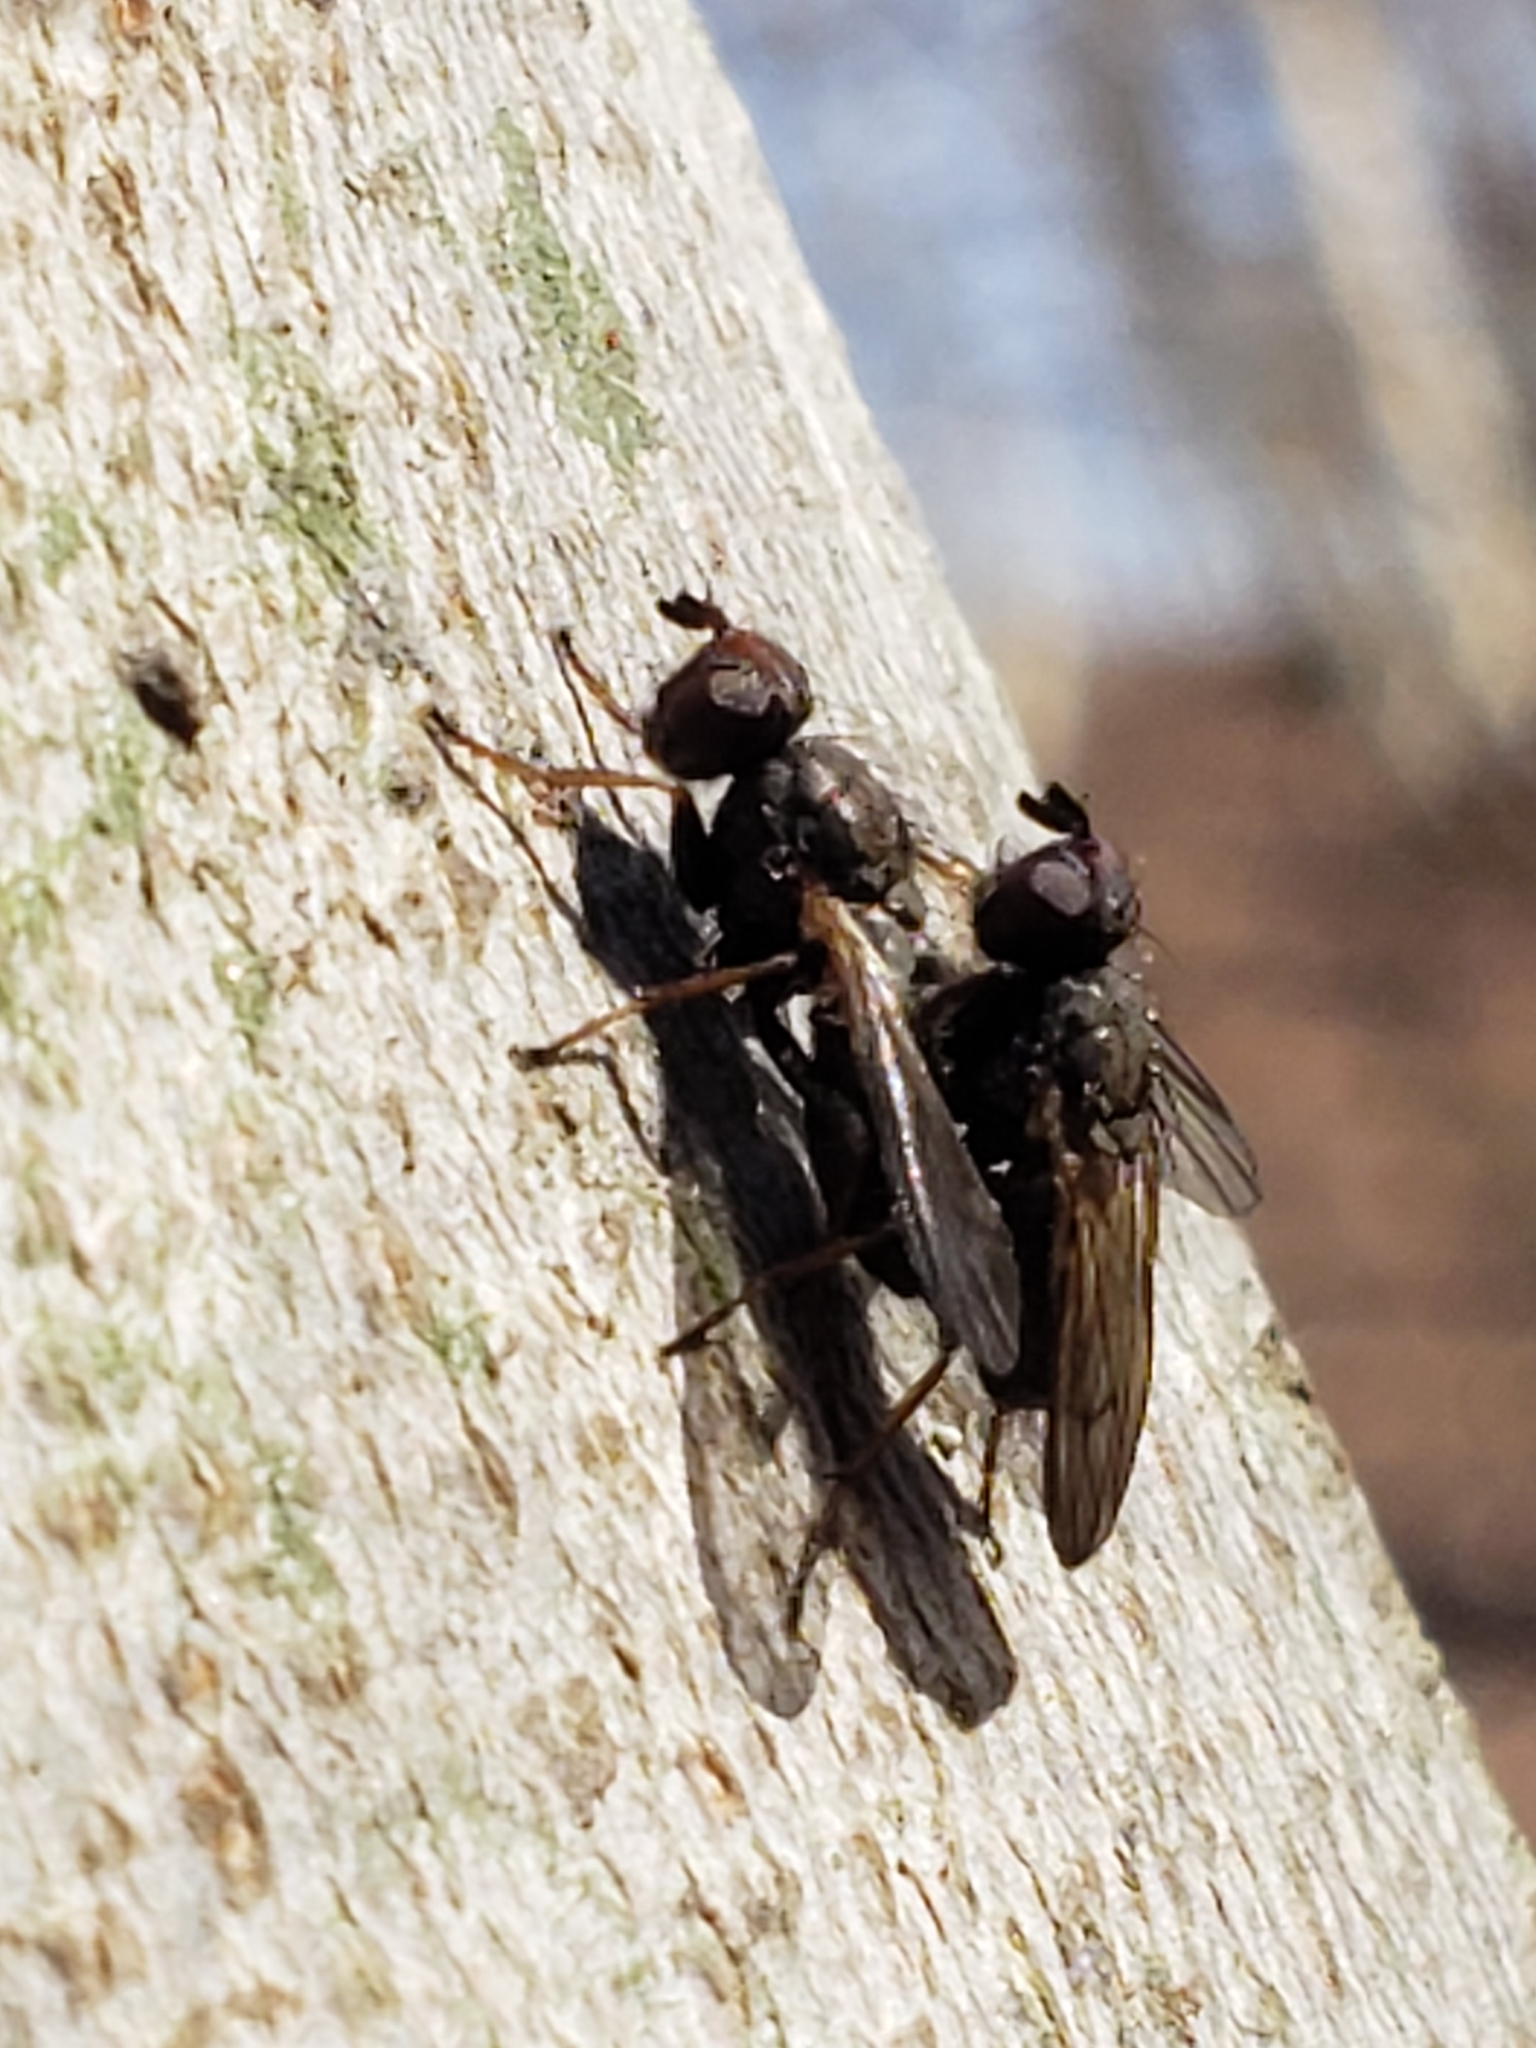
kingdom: Animalia
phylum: Arthropoda
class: Insecta
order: Diptera
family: Scathophagidae
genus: Bucephalina
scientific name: Bucephalina megacephala
